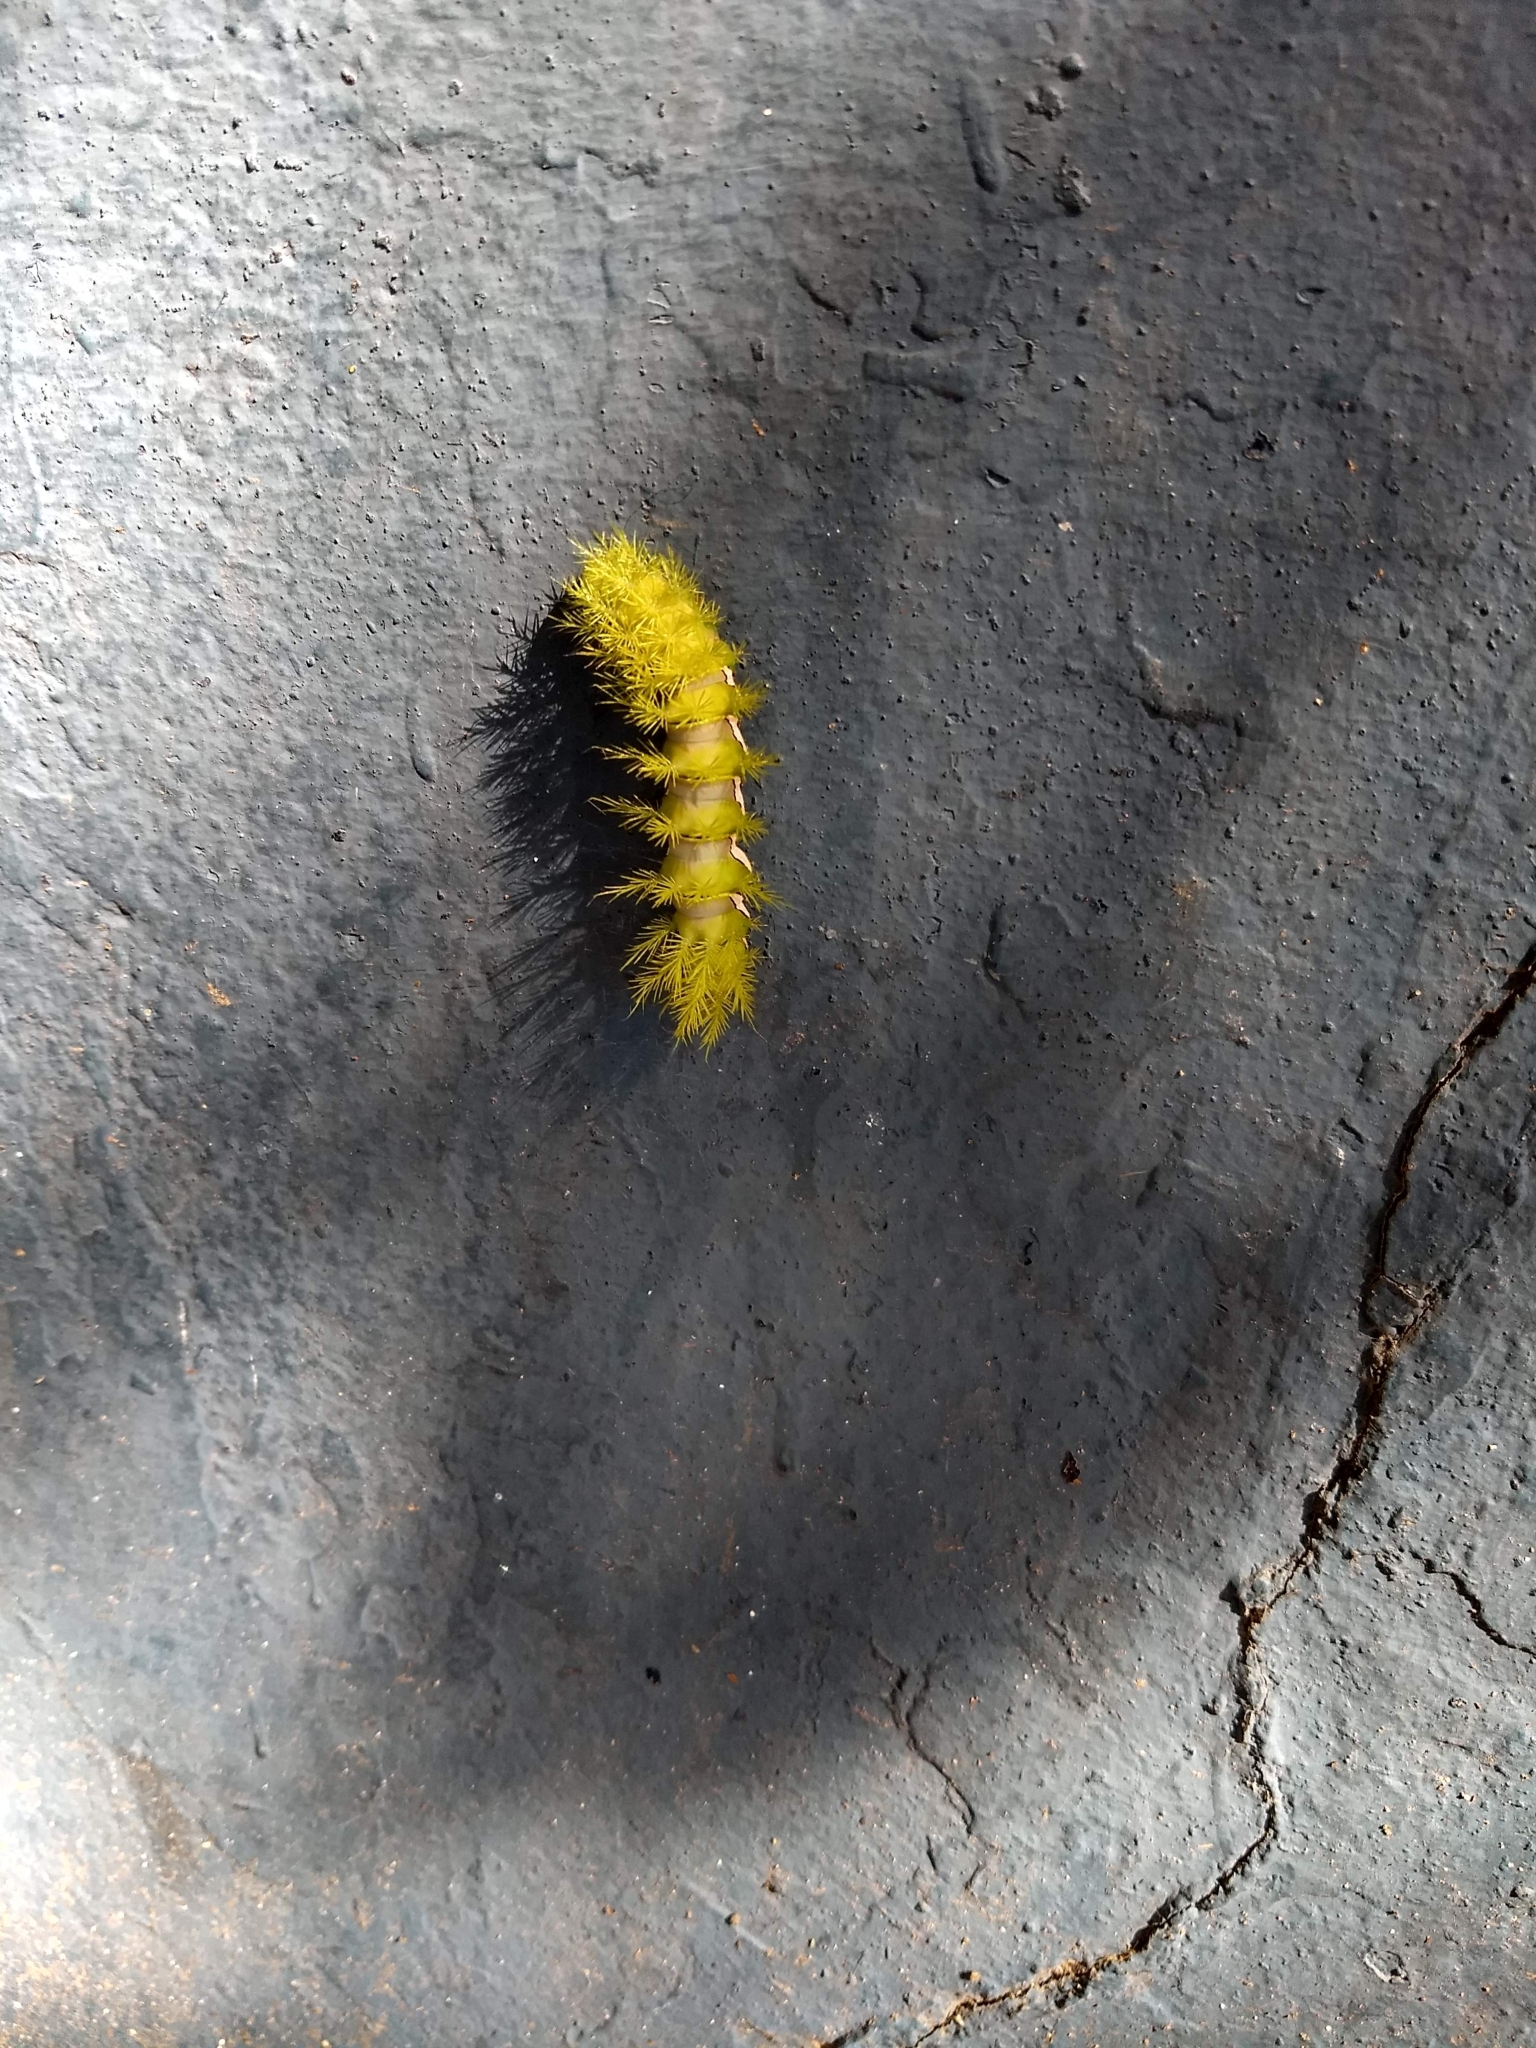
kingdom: Animalia
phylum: Arthropoda
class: Insecta
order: Lepidoptera
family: Saturniidae
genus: Automeris
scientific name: Automeris naranja
